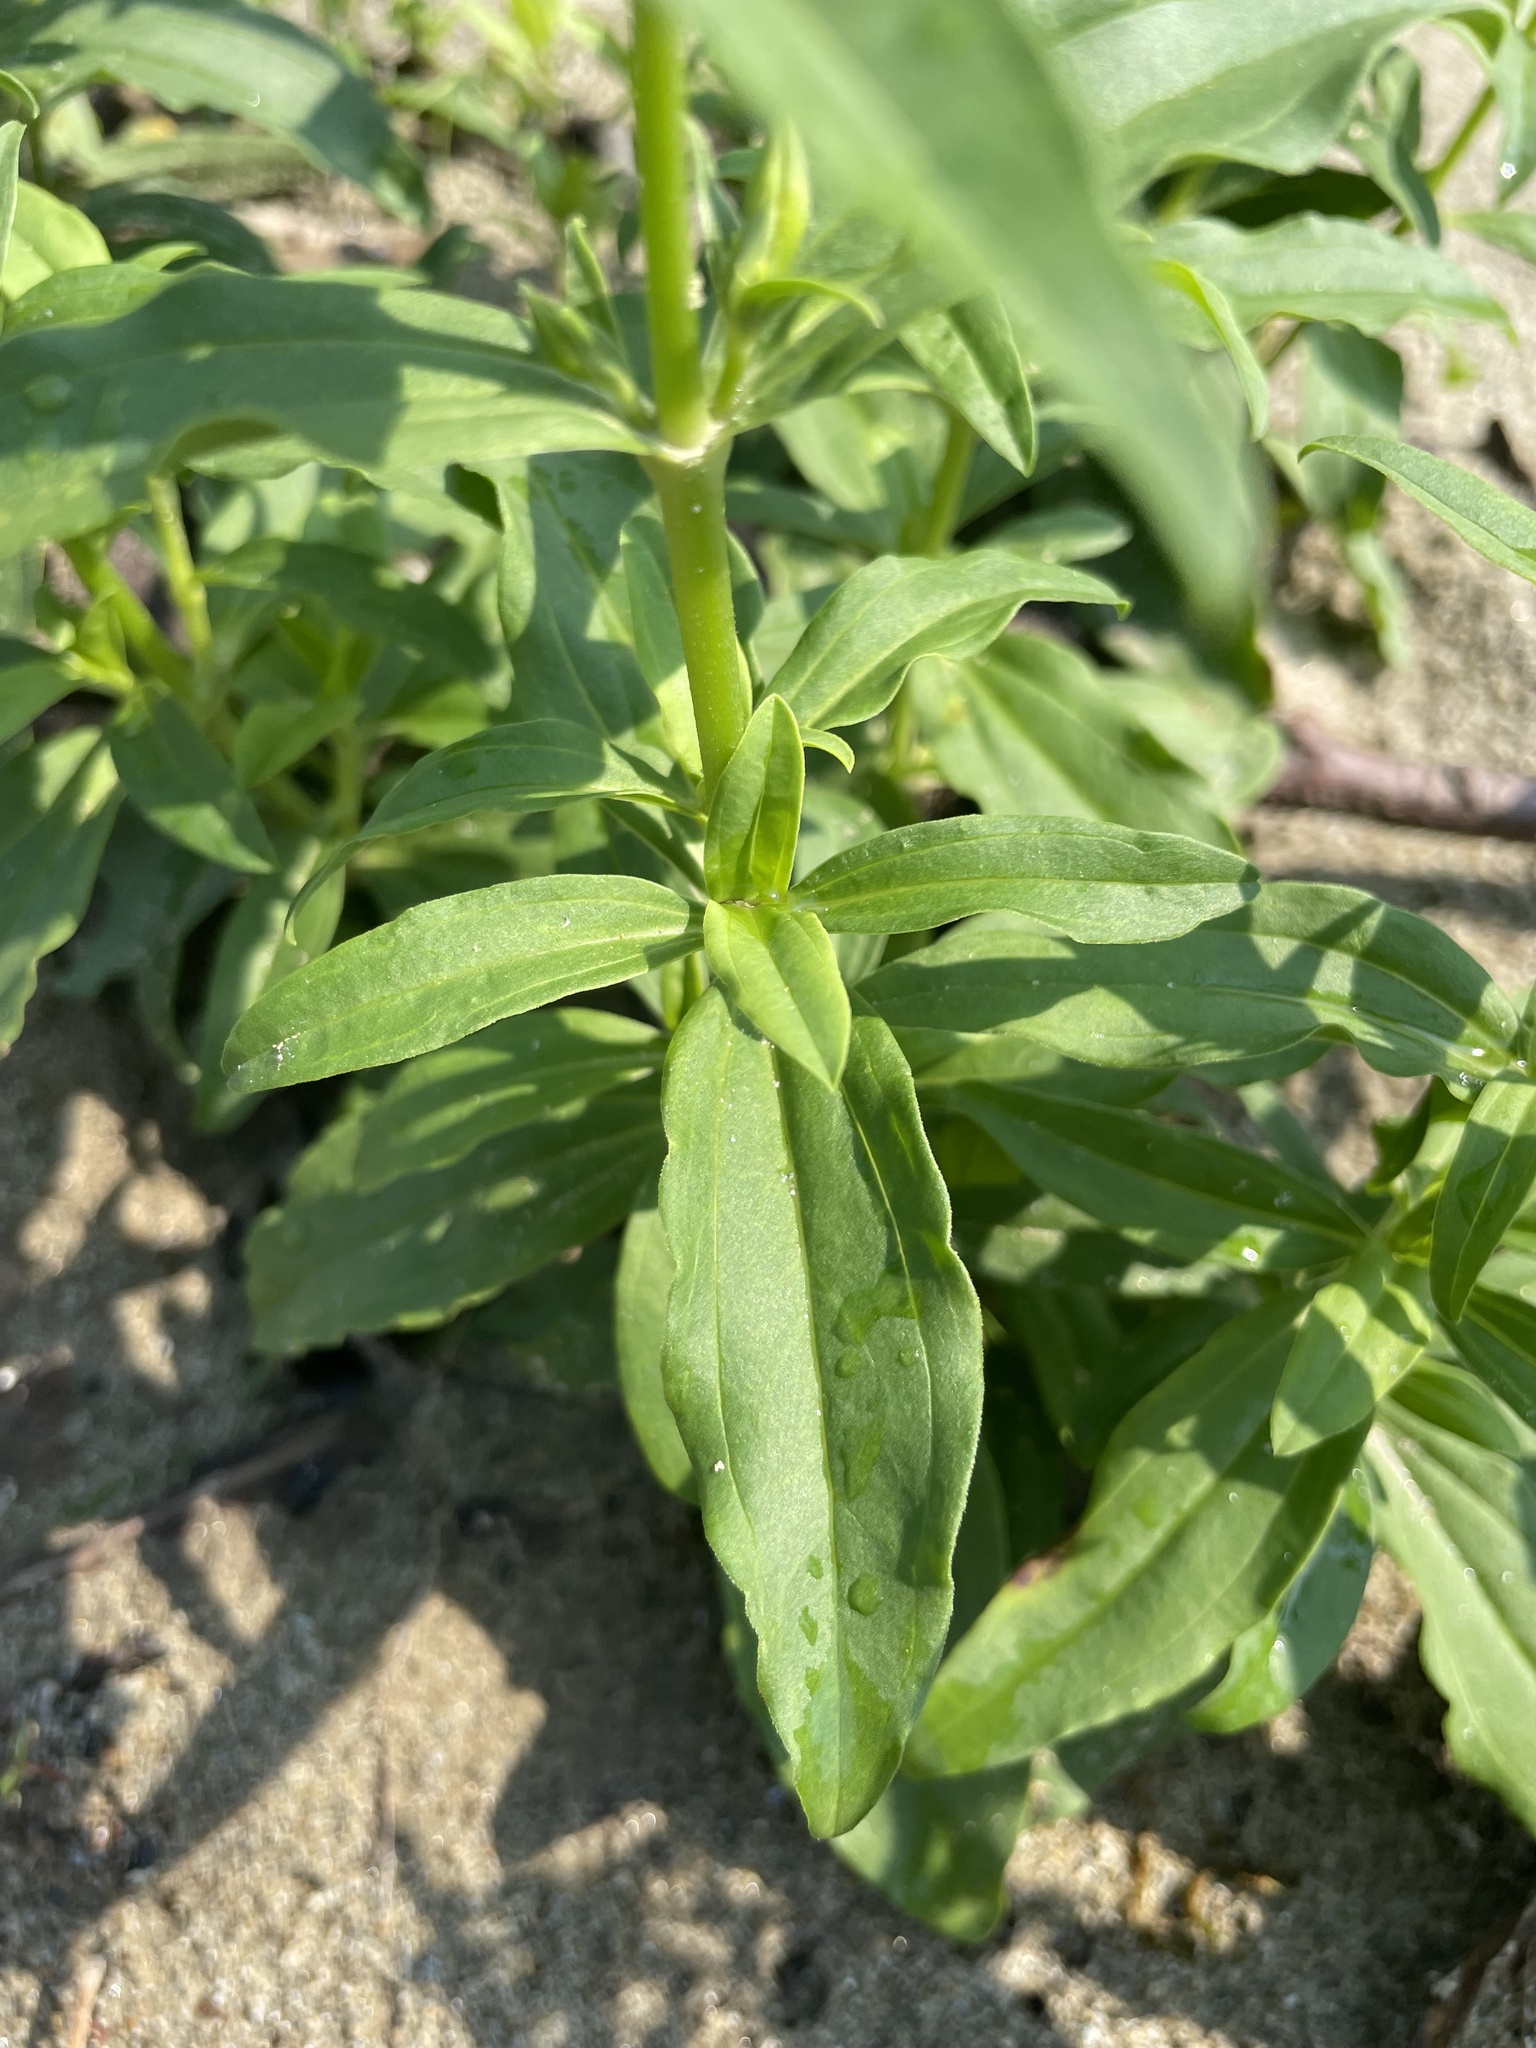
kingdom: Plantae
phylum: Tracheophyta
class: Magnoliopsida
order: Caryophyllales
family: Caryophyllaceae
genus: Saponaria
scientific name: Saponaria officinalis
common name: Soapwort
